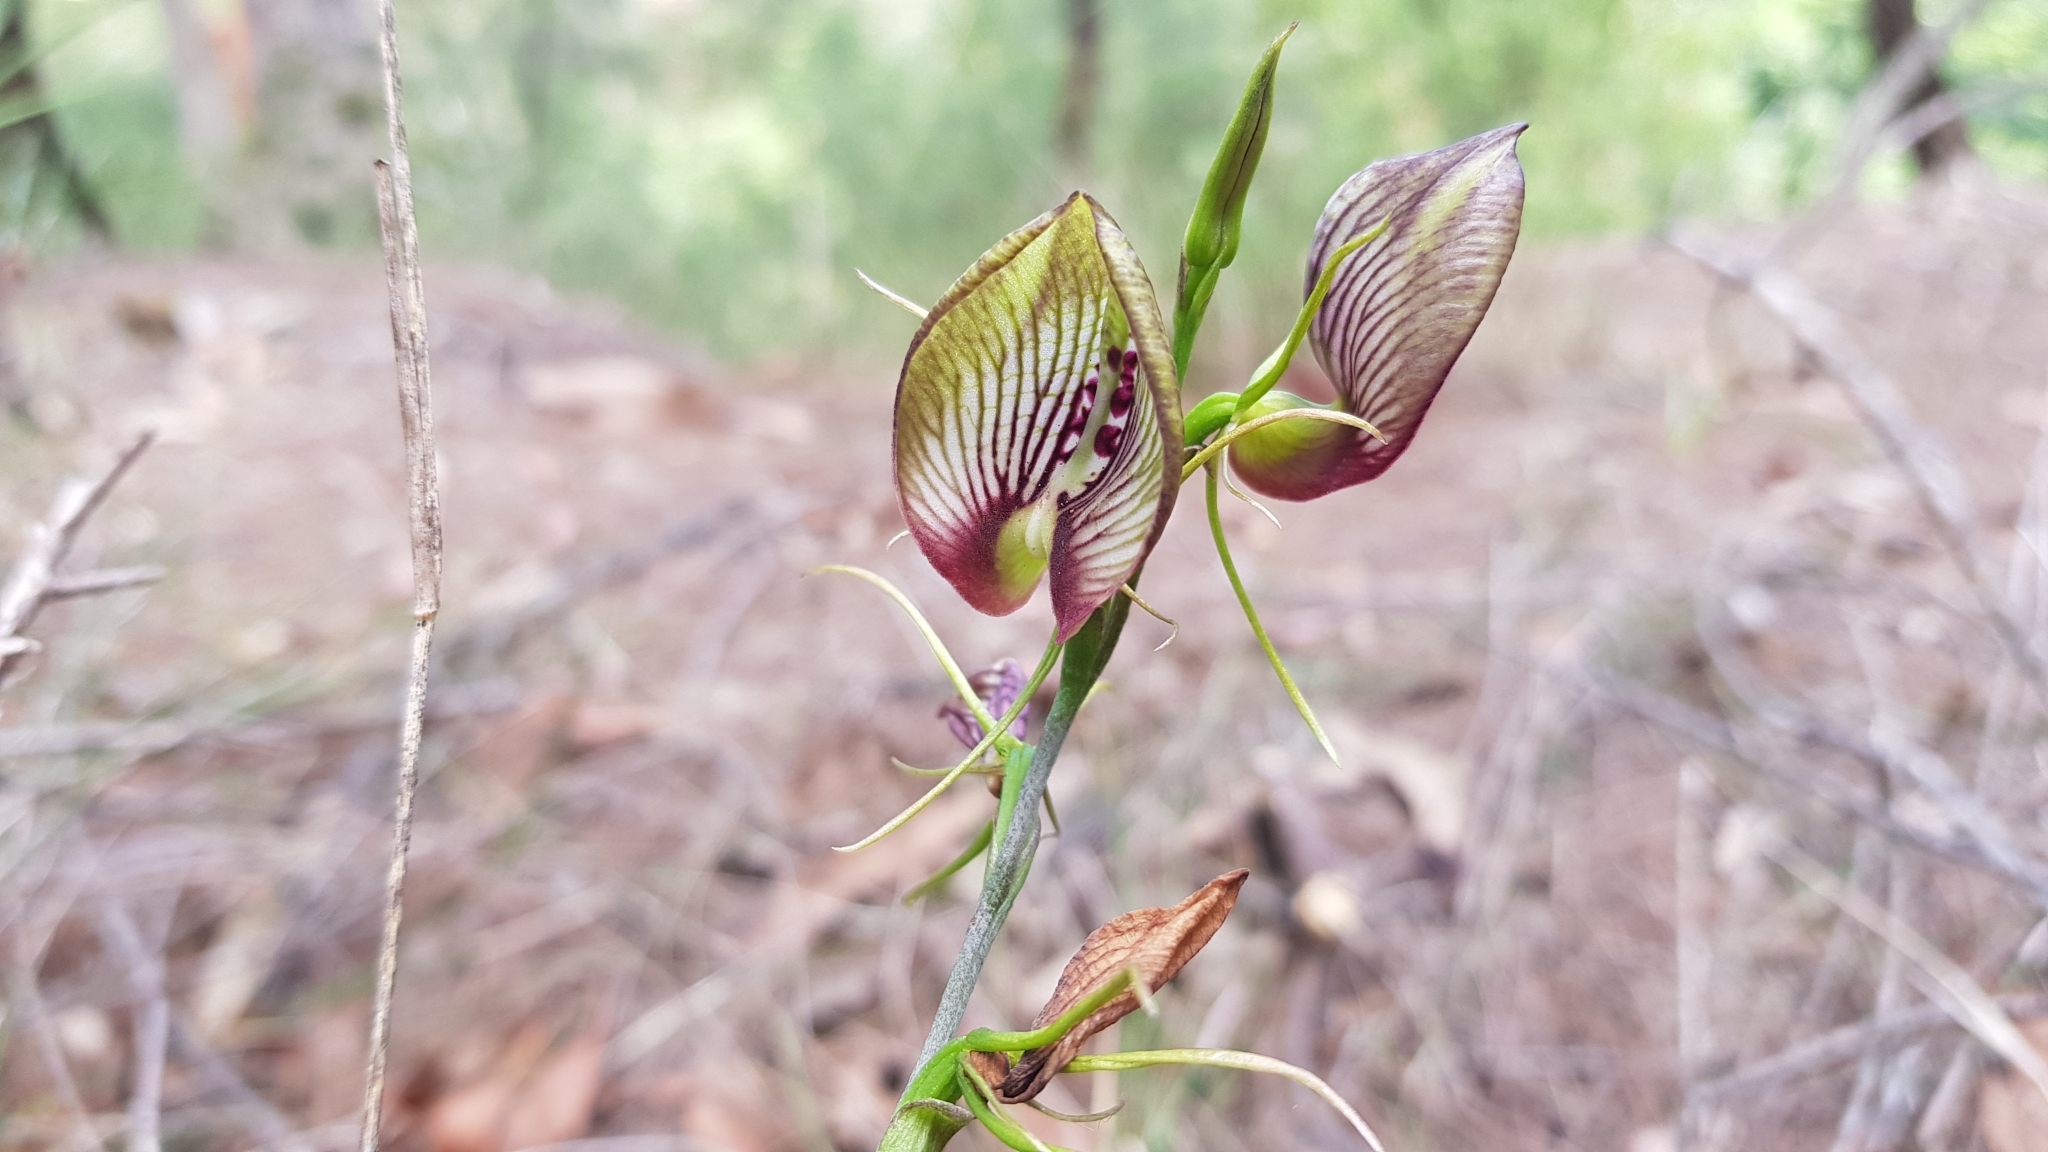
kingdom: Plantae
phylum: Tracheophyta
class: Liliopsida
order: Asparagales
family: Orchidaceae
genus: Cryptostylis
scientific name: Cryptostylis erecta
